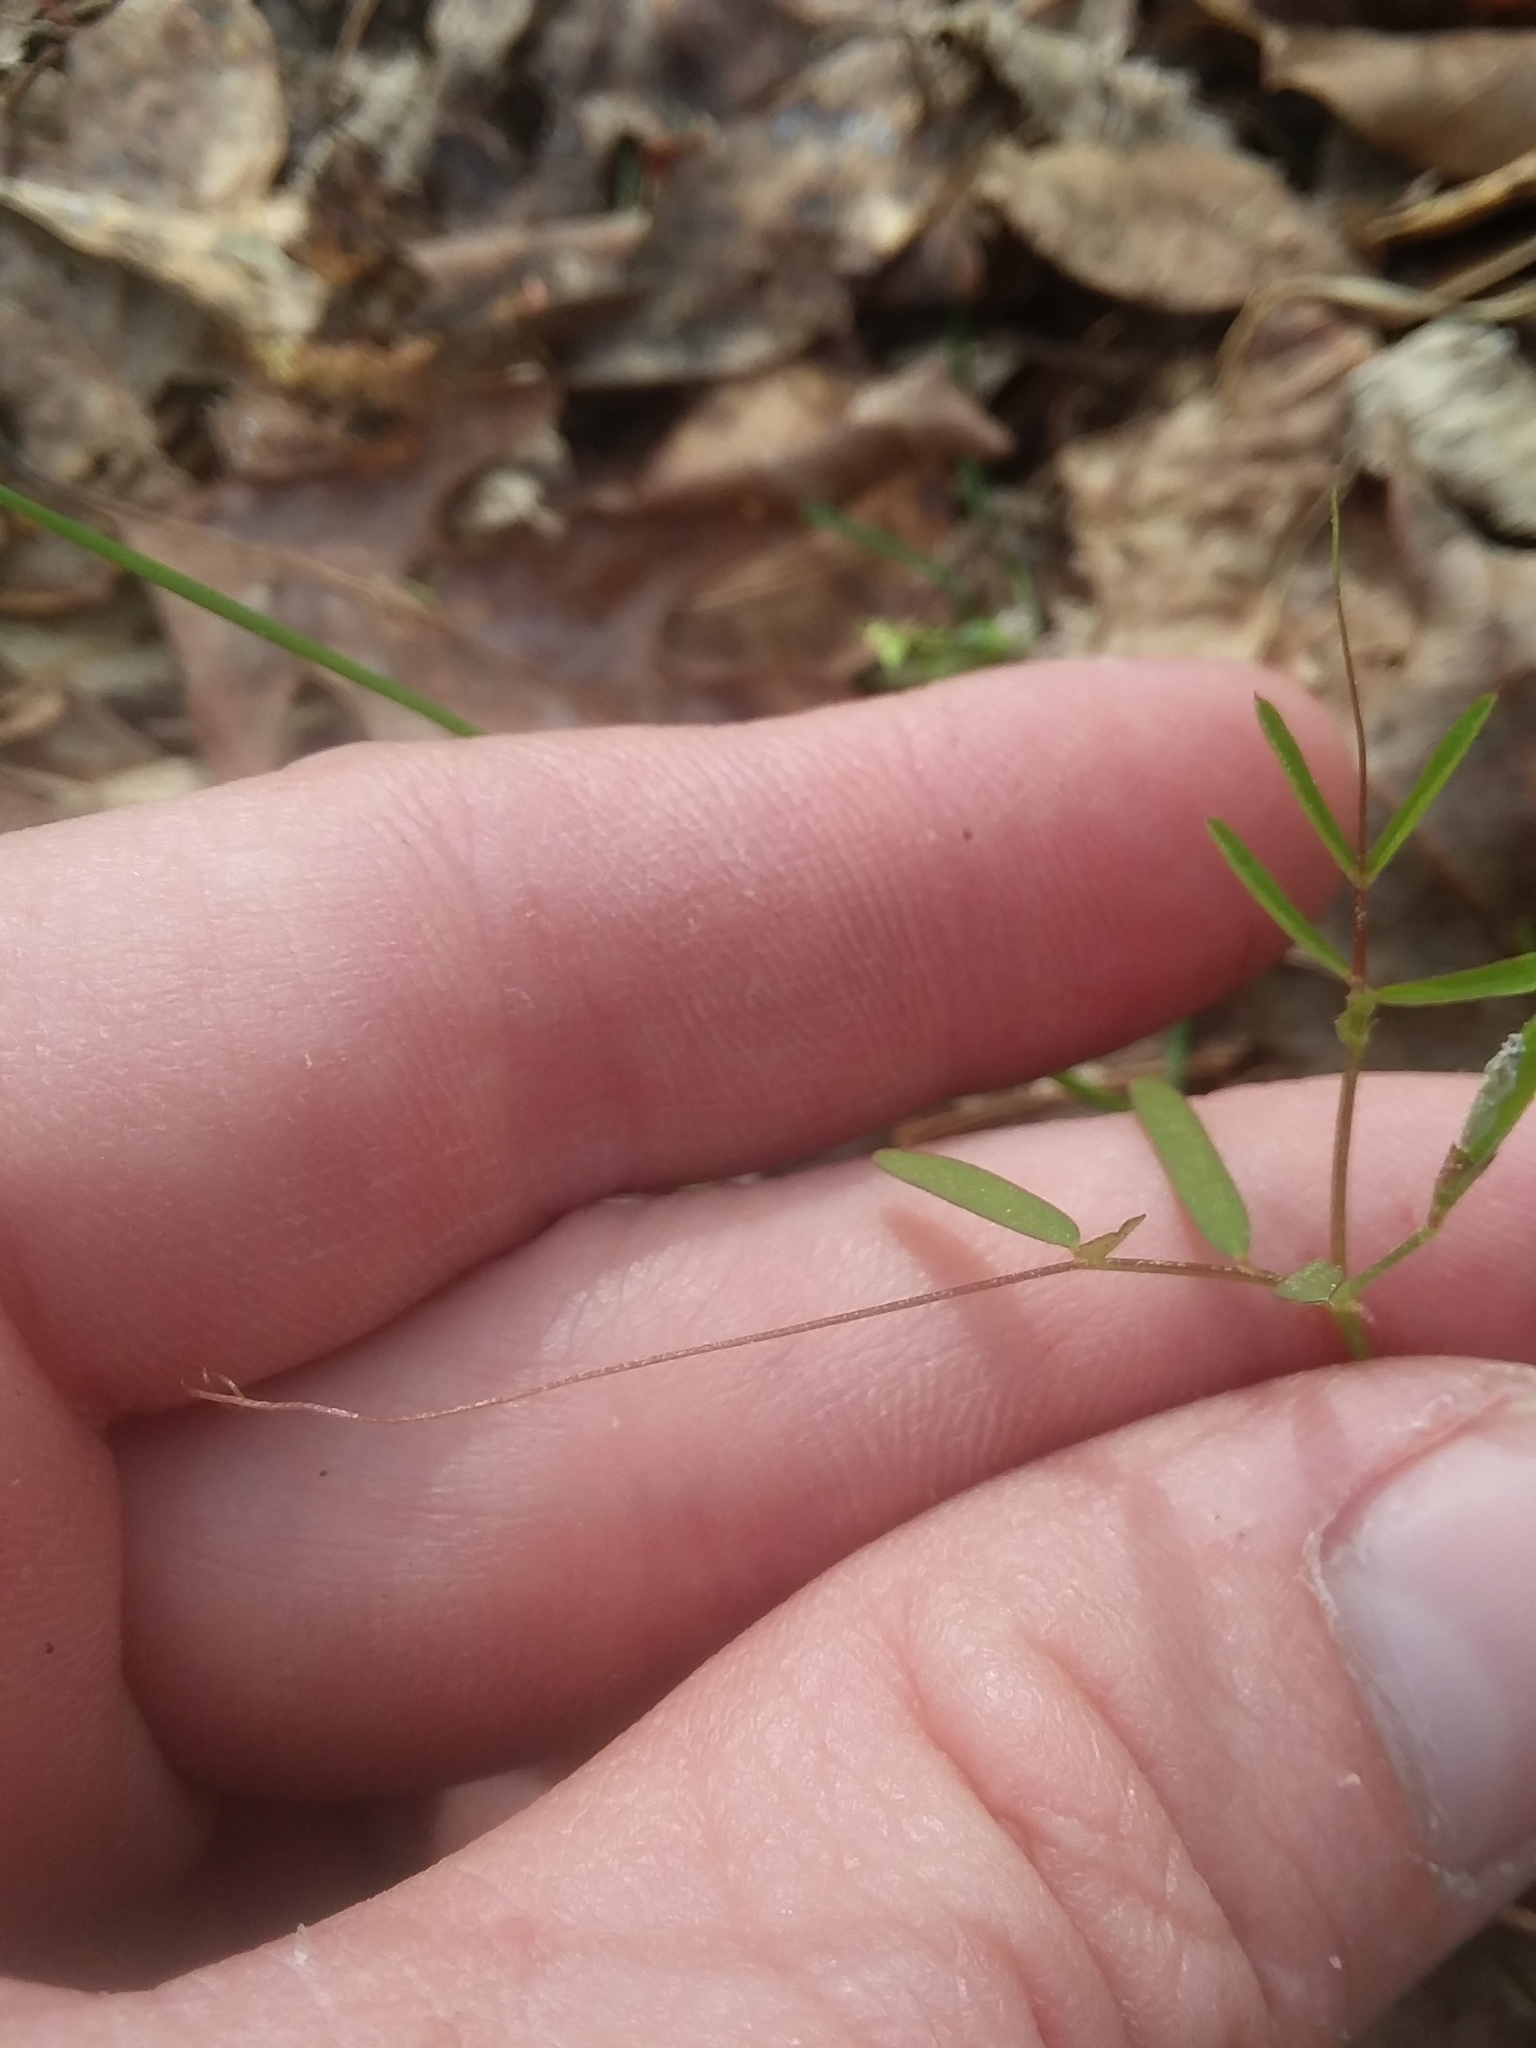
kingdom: Plantae
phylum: Tracheophyta
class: Magnoliopsida
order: Fabales
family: Fabaceae
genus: Vicia
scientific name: Vicia minutiflora
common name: Pygmy-flower vetch
